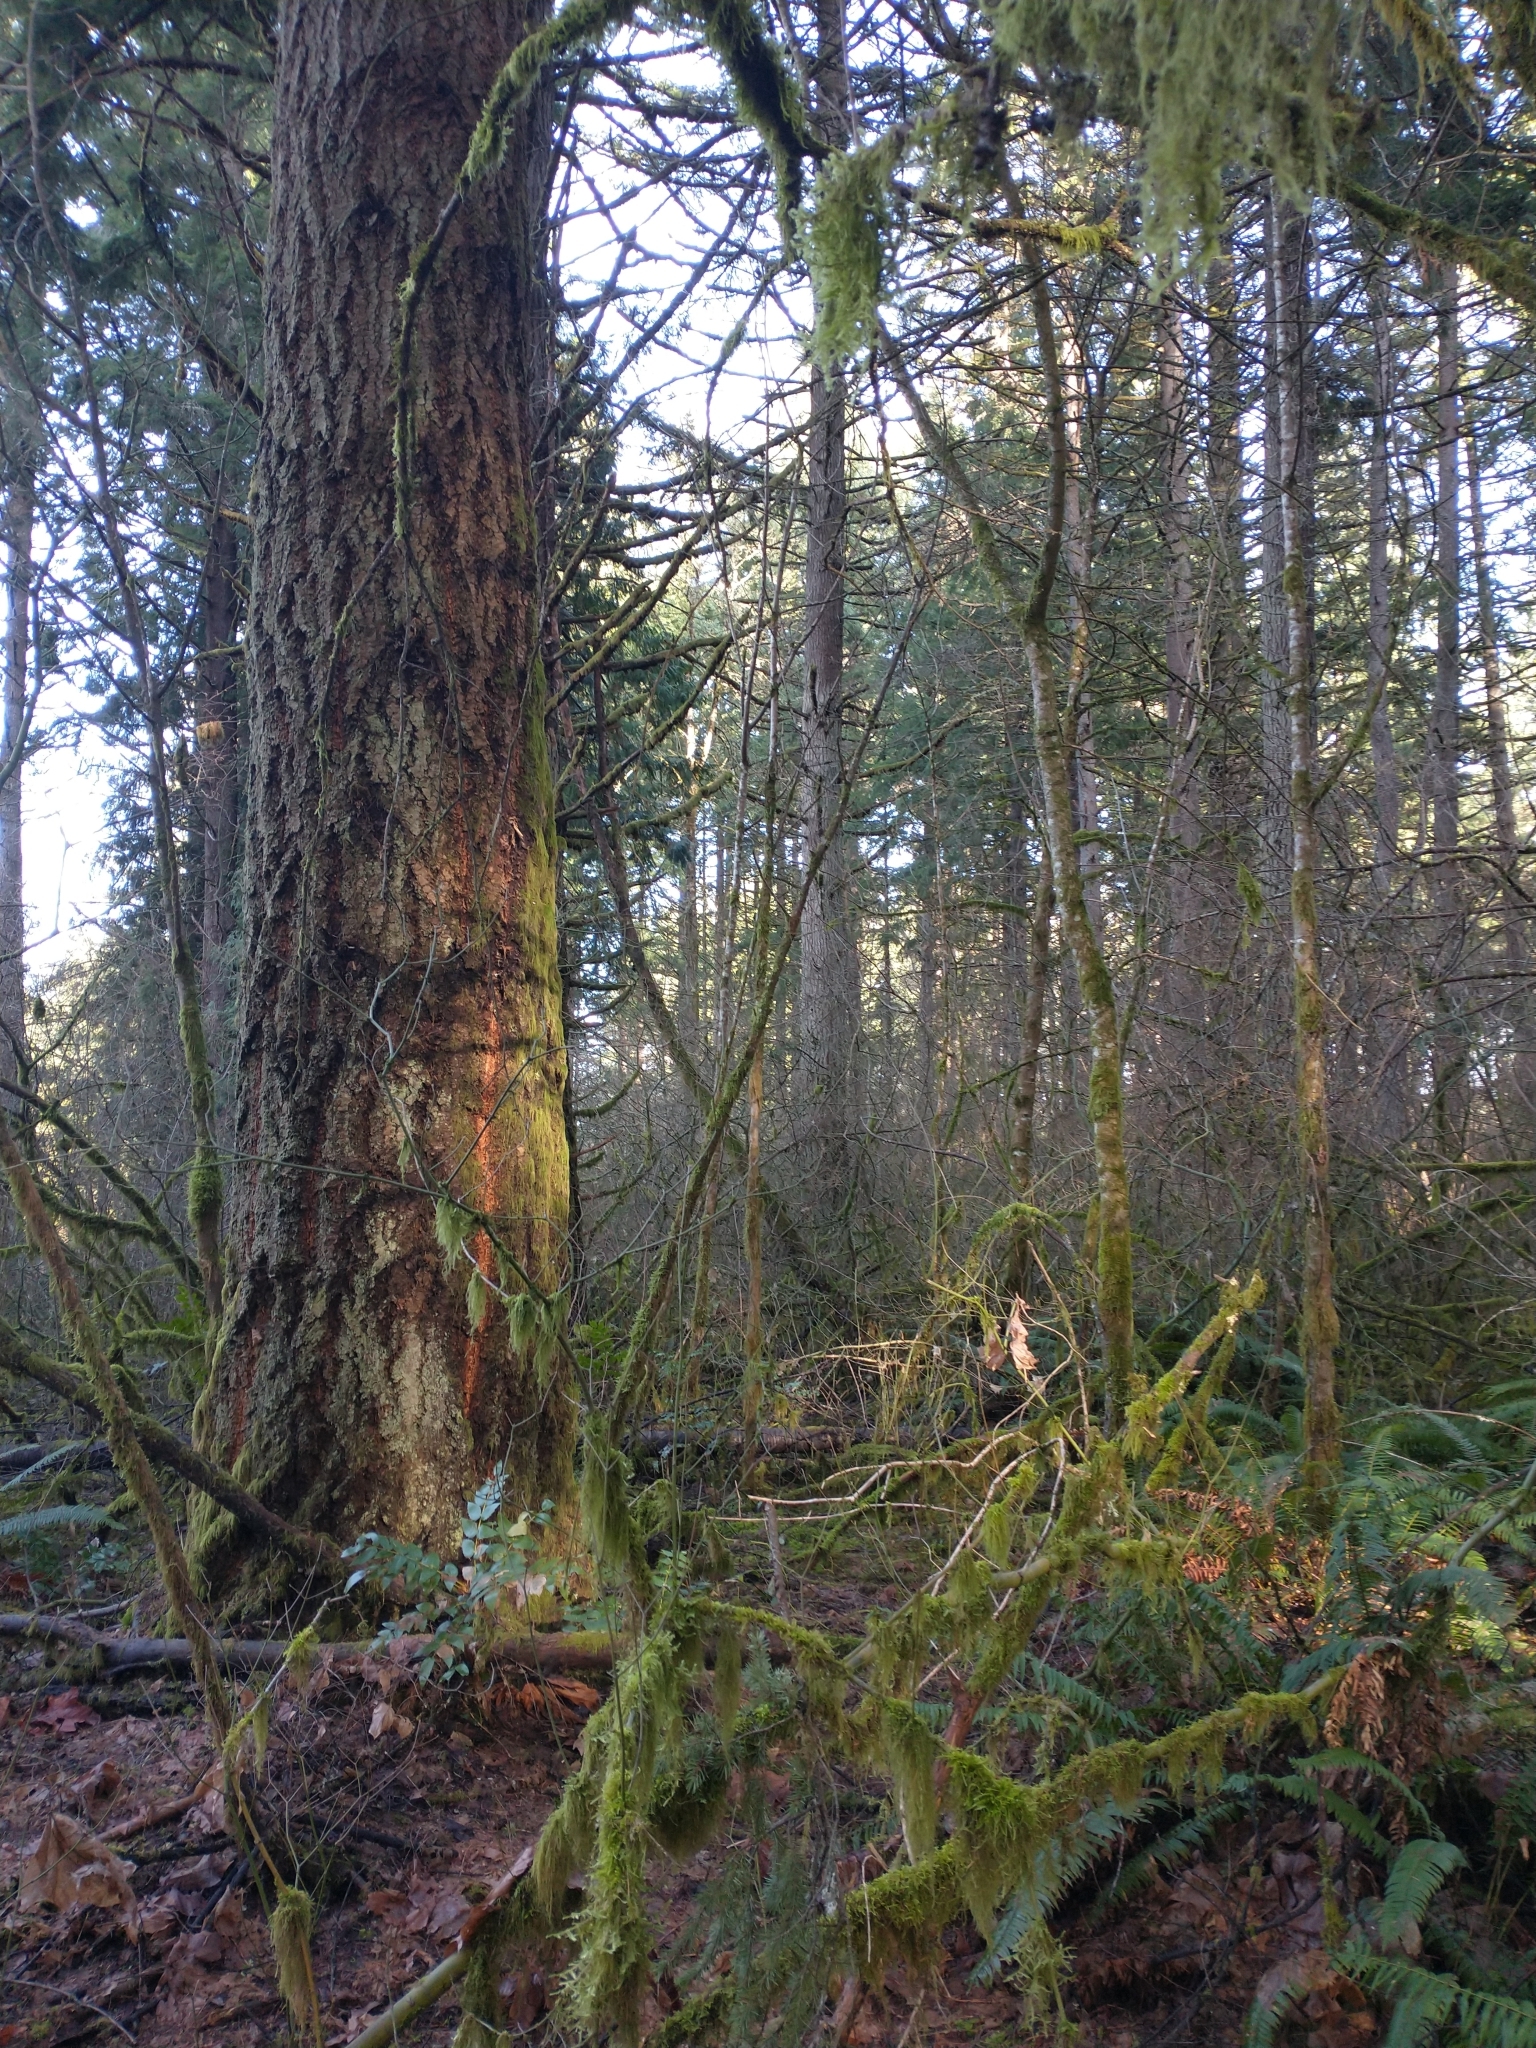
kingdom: Plantae
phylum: Tracheophyta
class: Pinopsida
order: Pinales
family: Pinaceae
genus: Pseudotsuga
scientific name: Pseudotsuga menziesii
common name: Douglas fir
